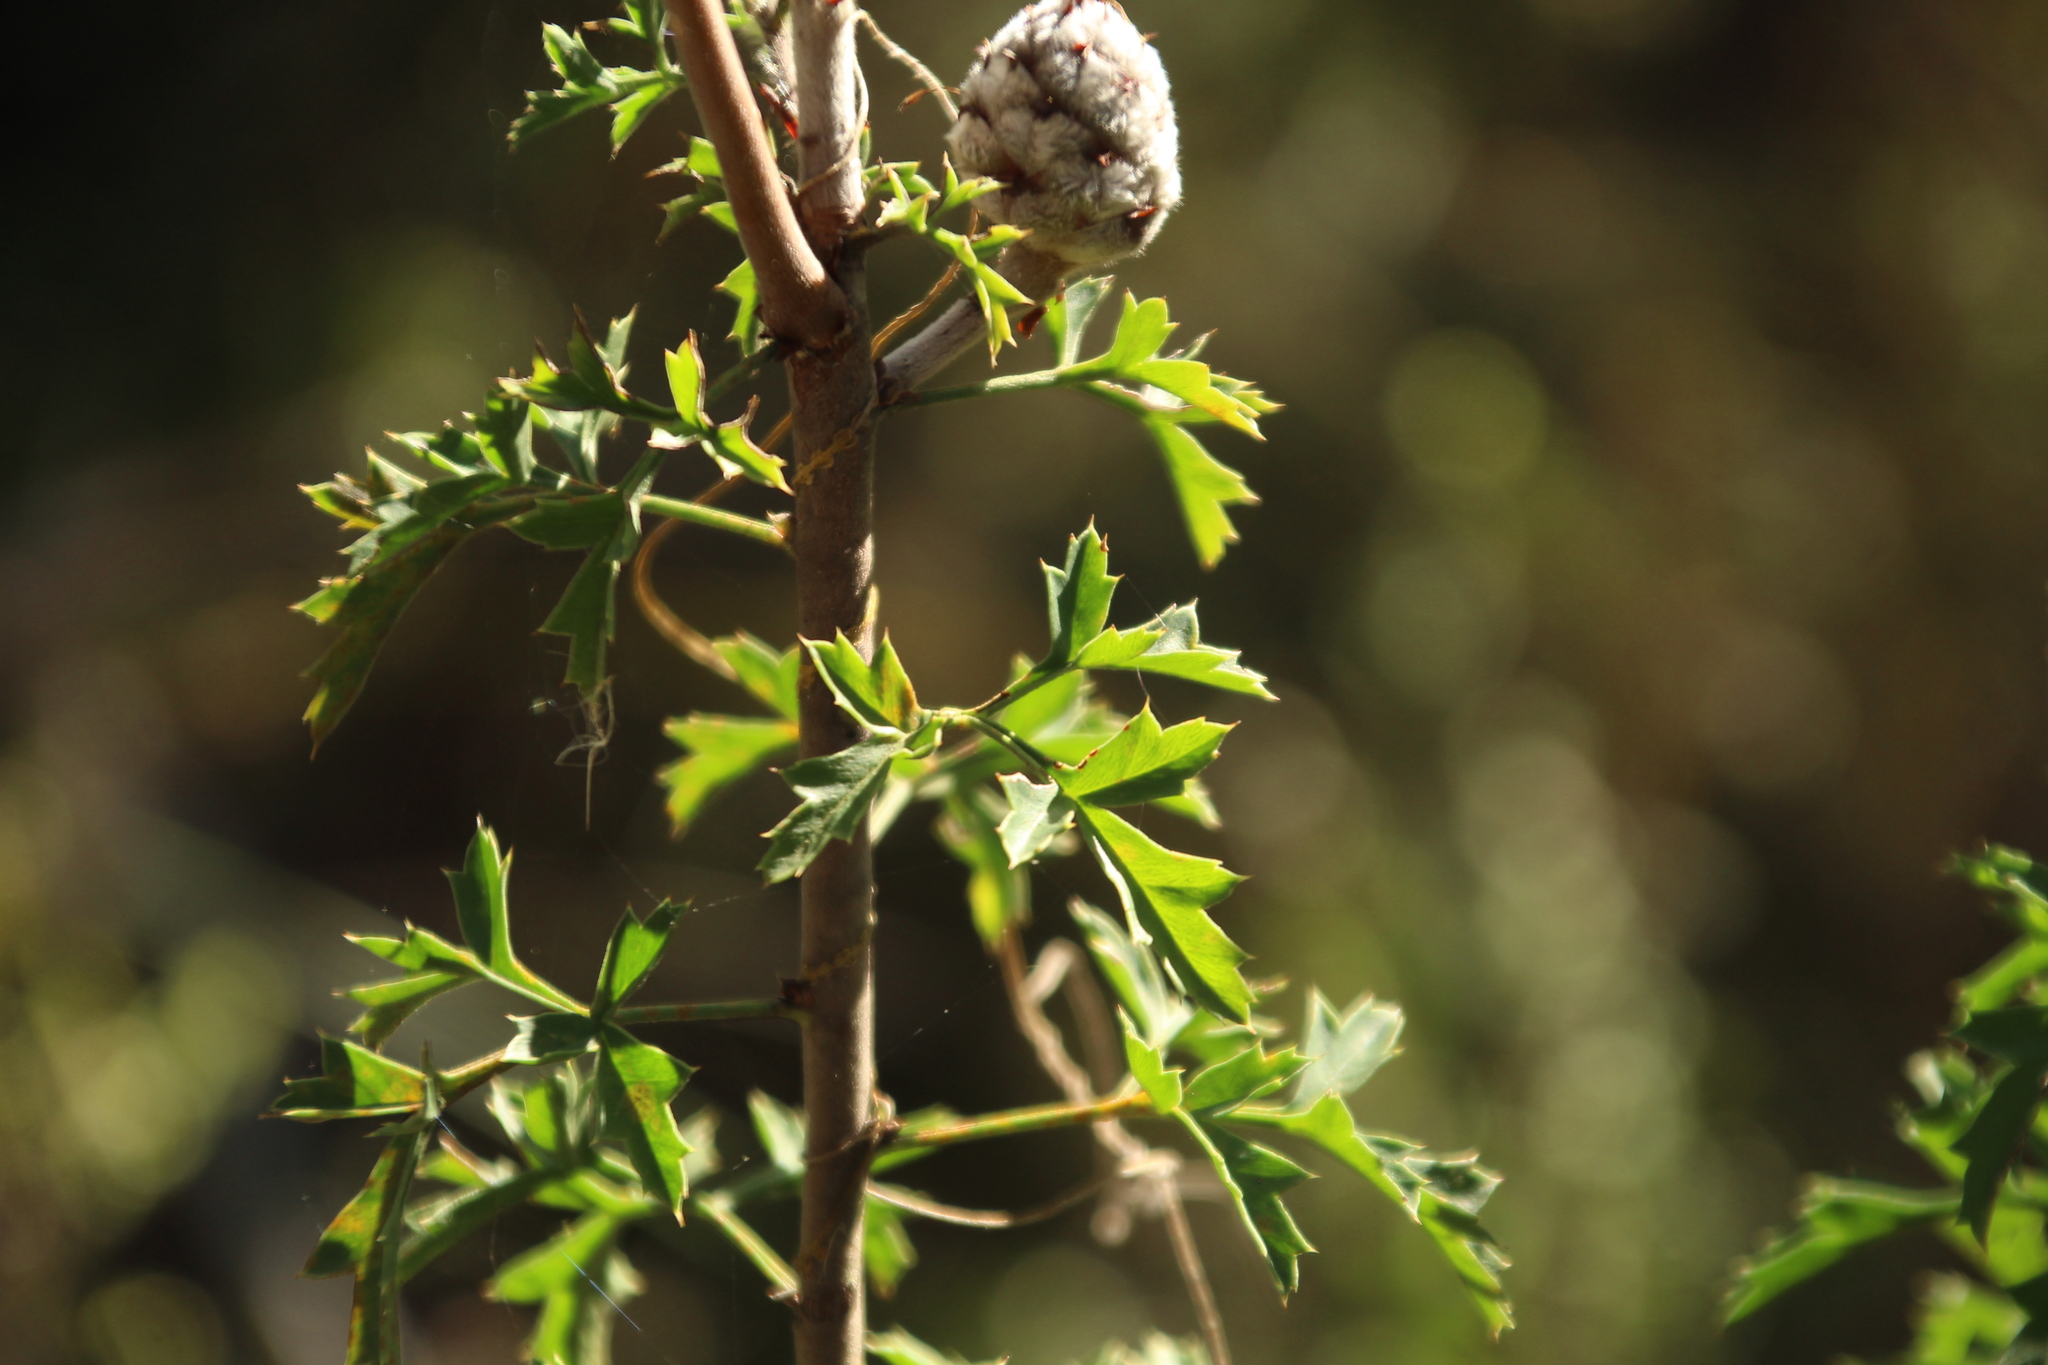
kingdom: Plantae
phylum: Tracheophyta
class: Magnoliopsida
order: Proteales
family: Proteaceae
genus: Petrophile
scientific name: Petrophile diversifolia
